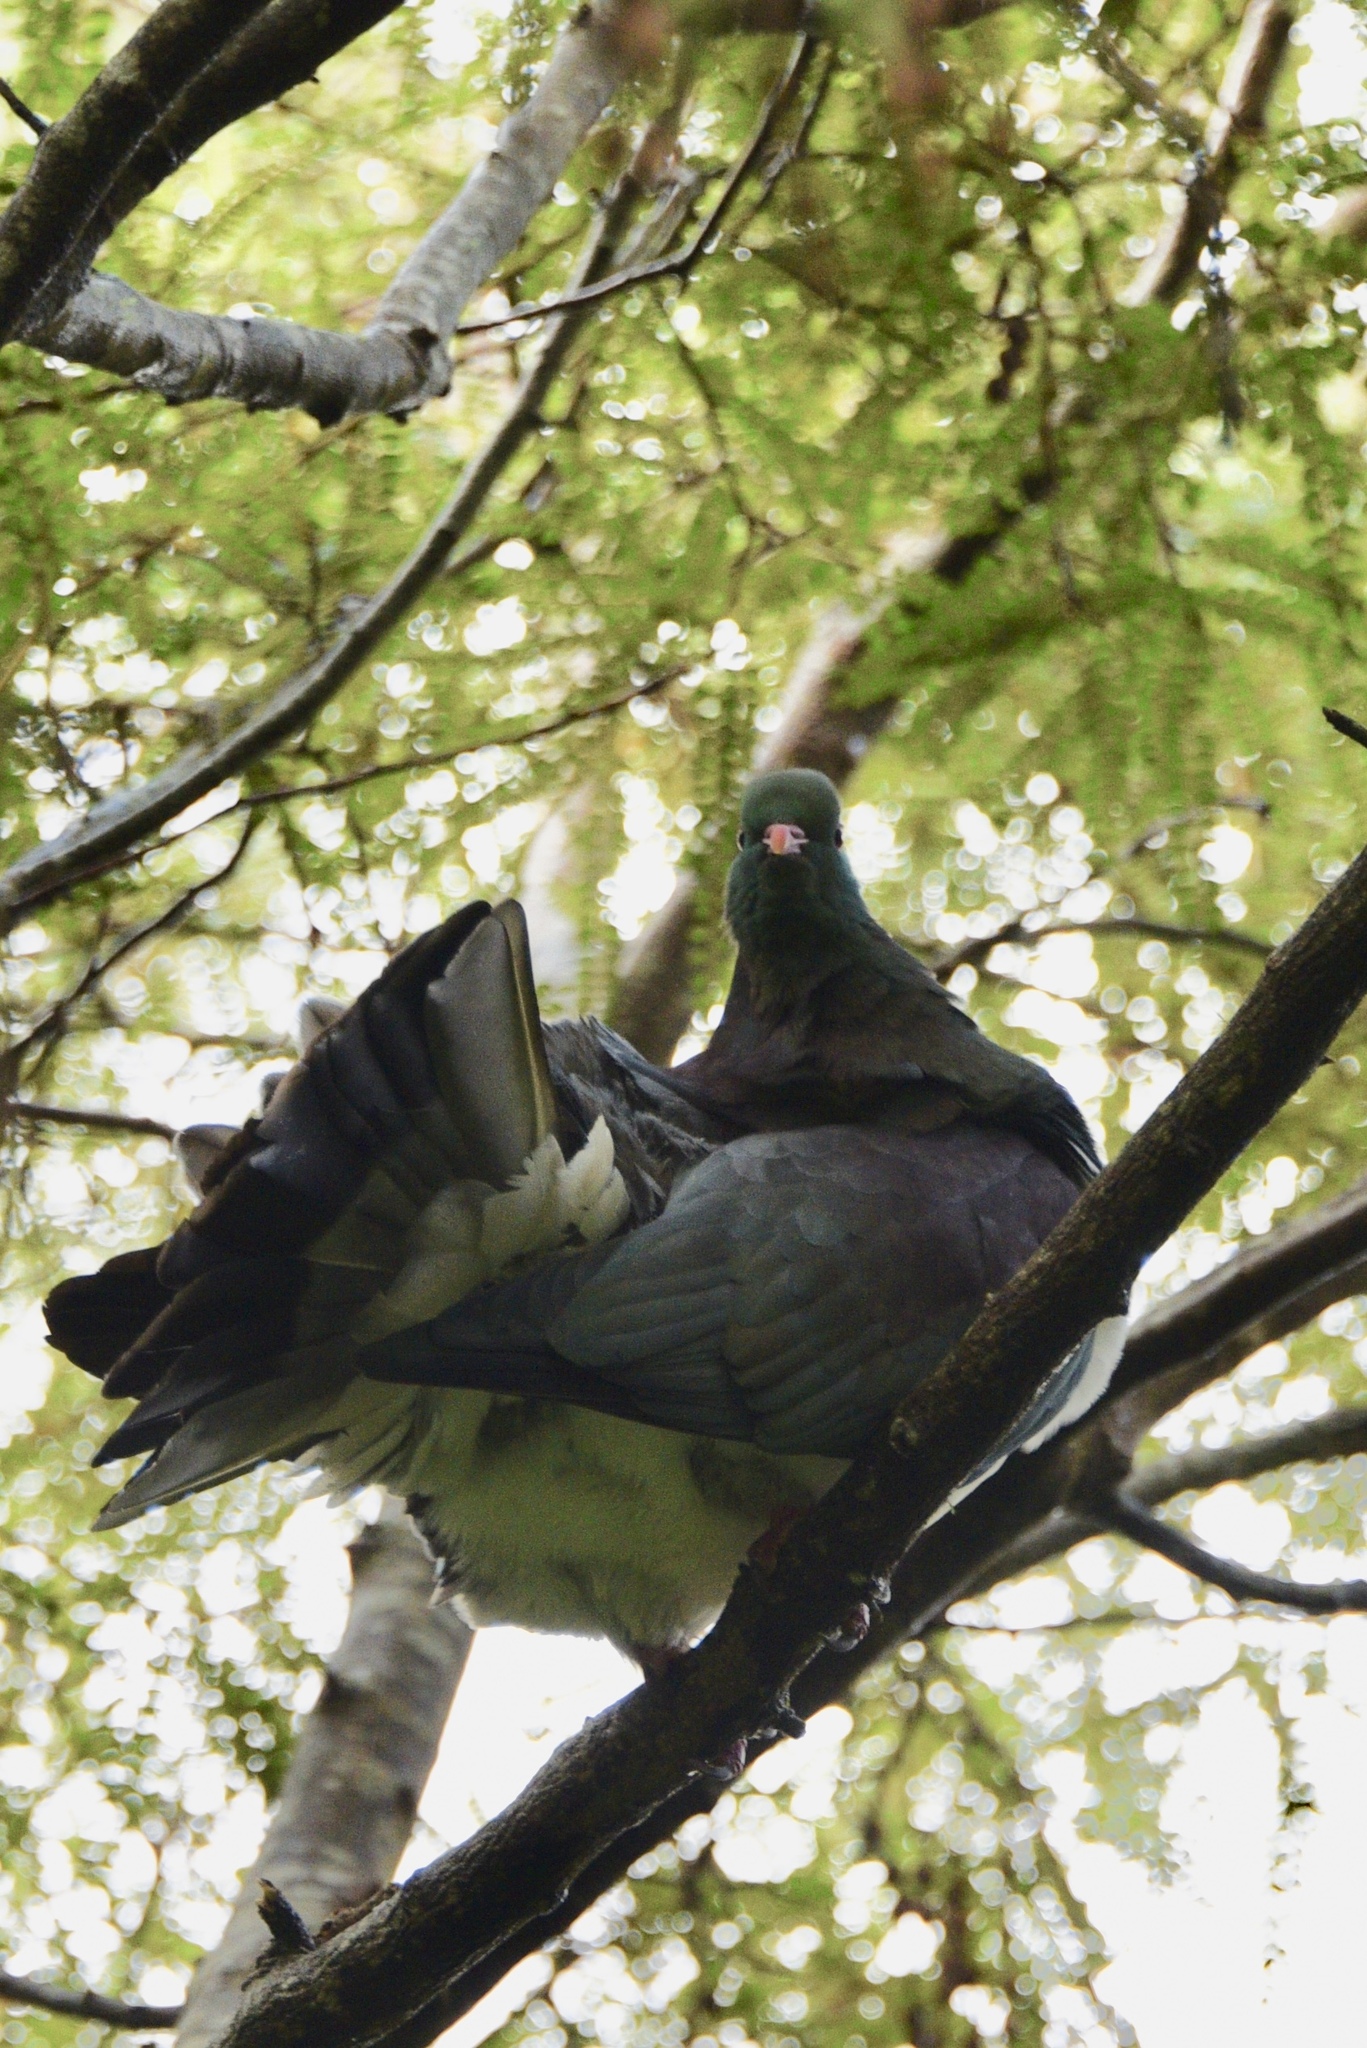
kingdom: Animalia
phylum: Chordata
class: Aves
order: Columbiformes
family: Columbidae
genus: Hemiphaga
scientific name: Hemiphaga novaeseelandiae
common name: New zealand pigeon
